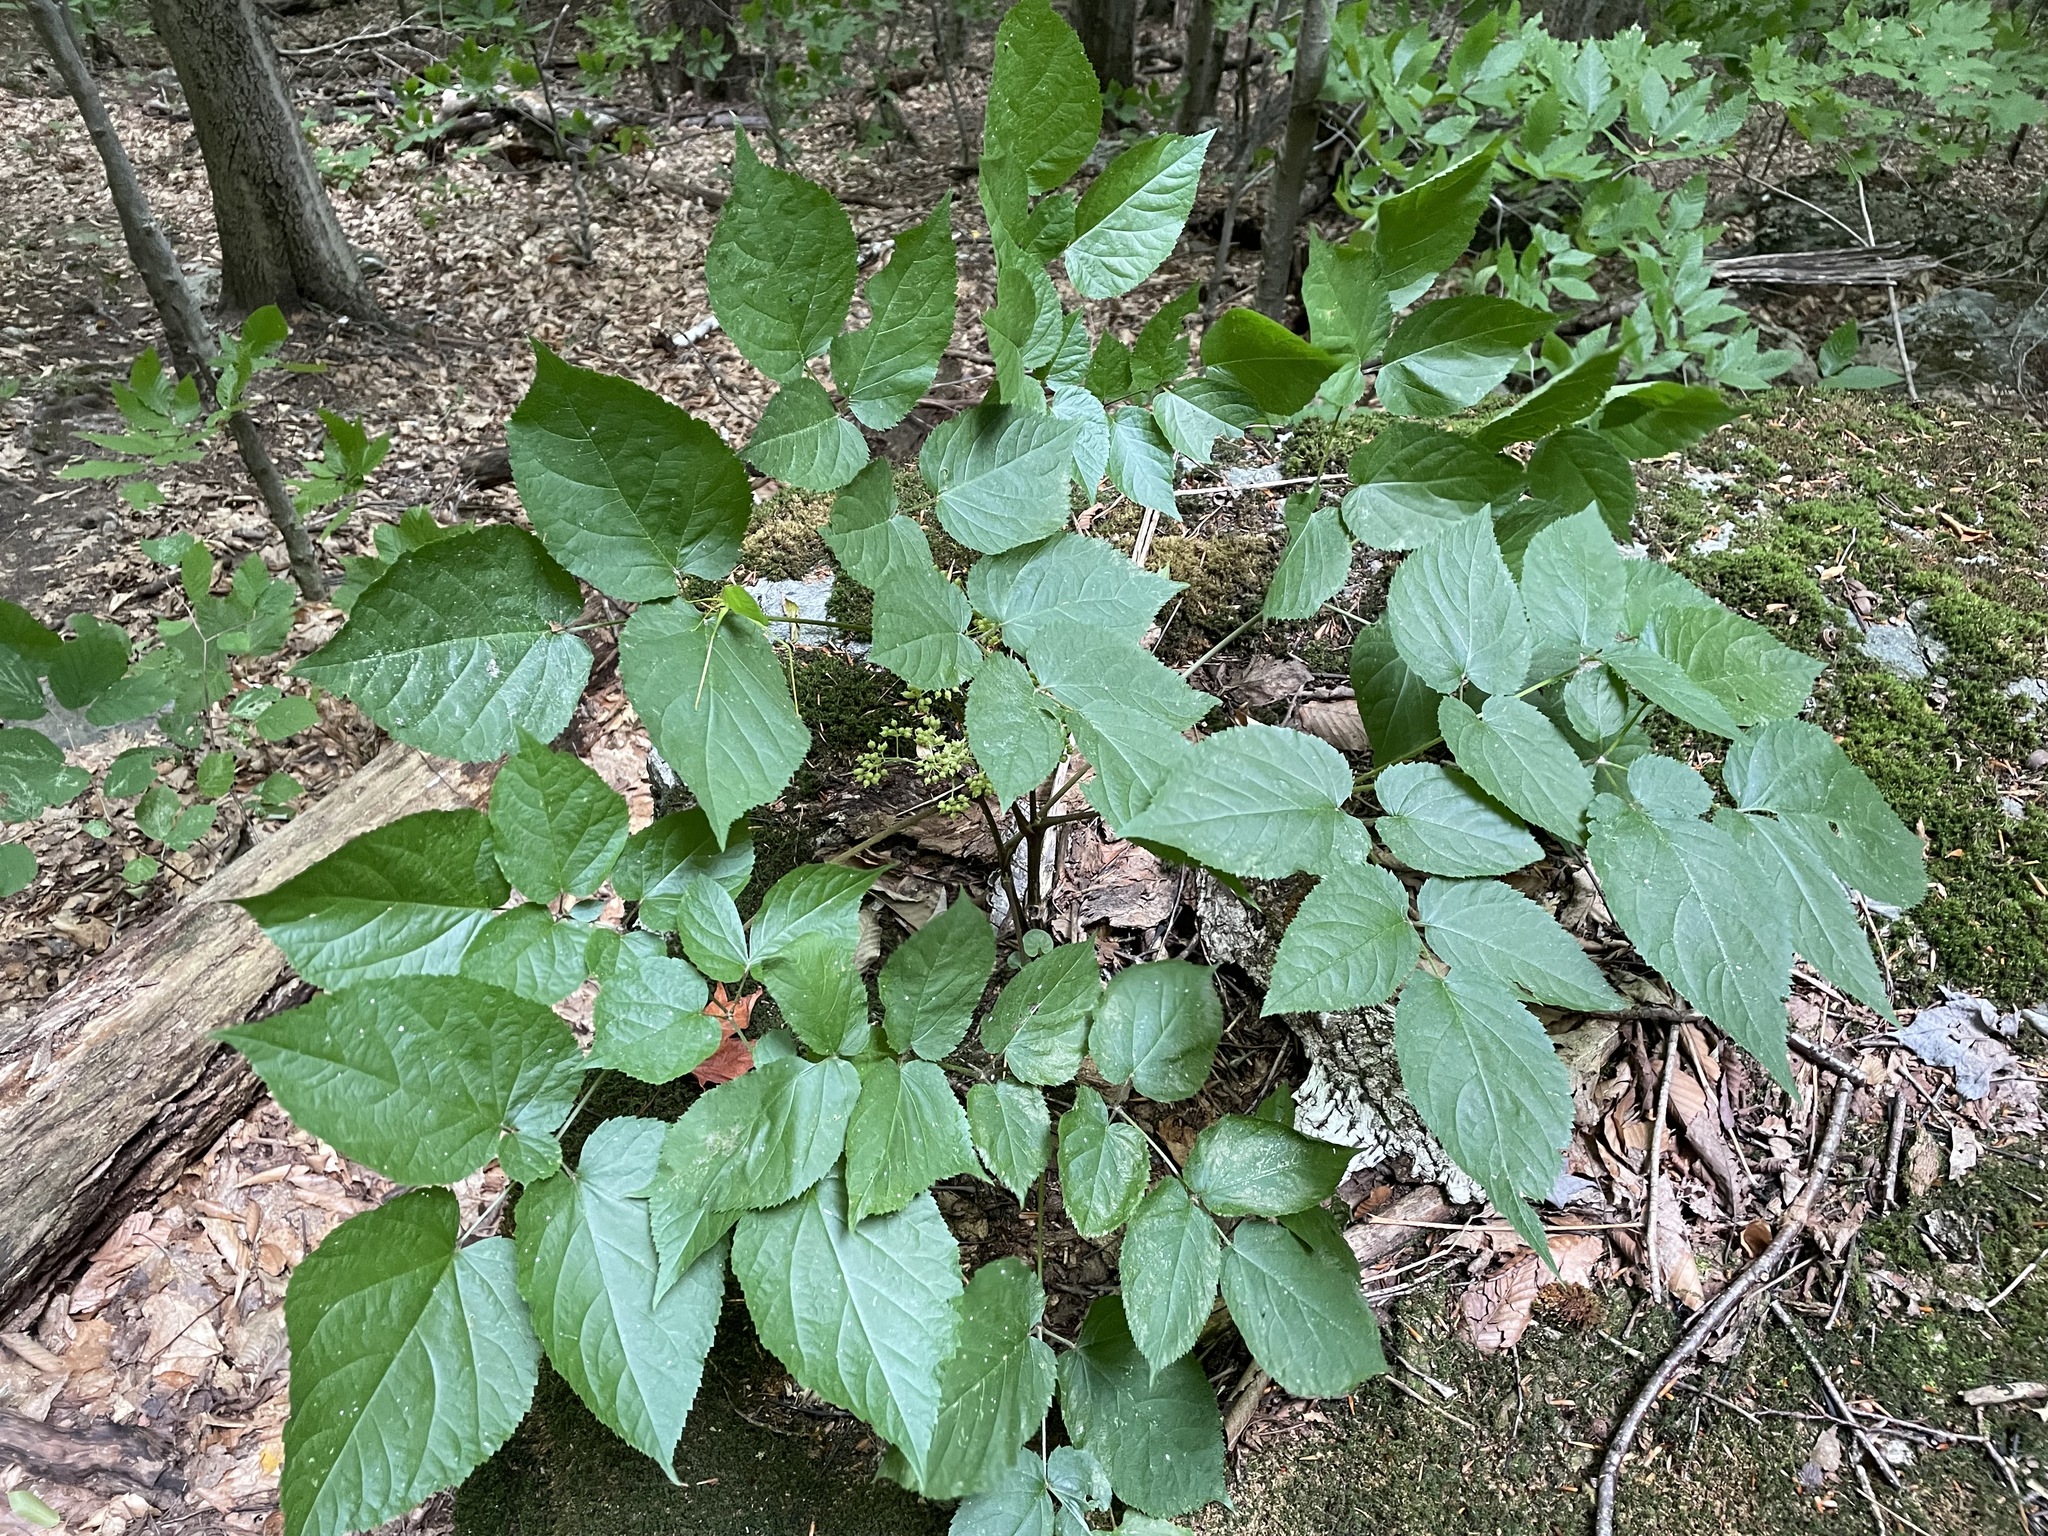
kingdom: Plantae
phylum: Tracheophyta
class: Magnoliopsida
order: Apiales
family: Araliaceae
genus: Aralia
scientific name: Aralia racemosa
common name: American-spikenard
